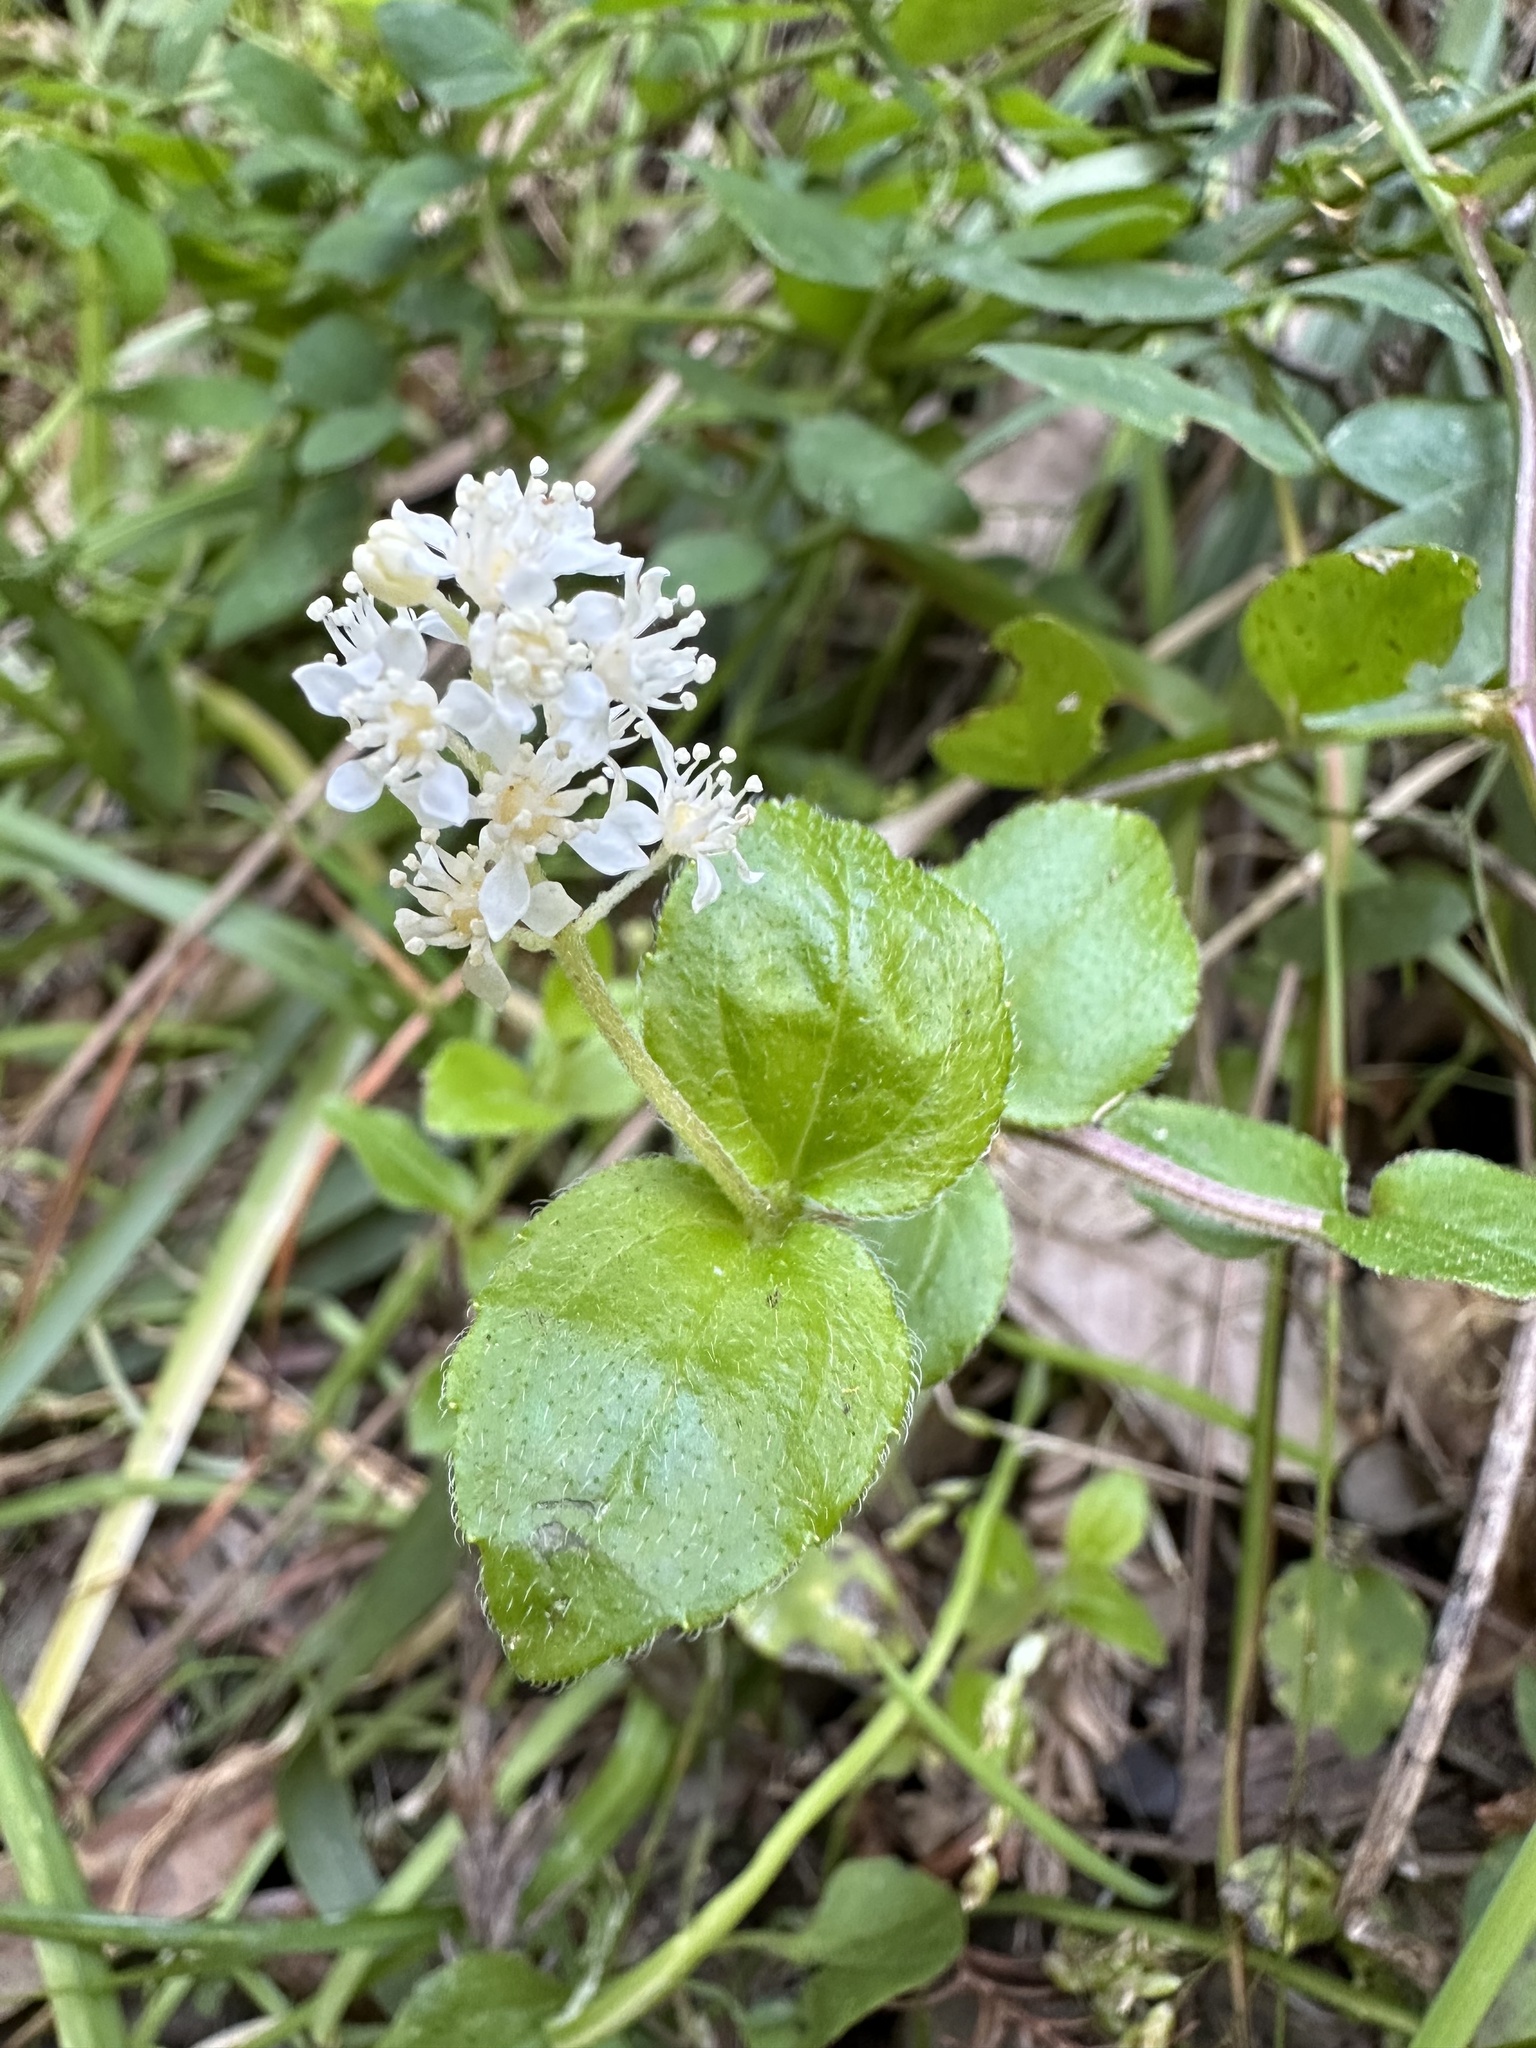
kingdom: Plantae
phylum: Tracheophyta
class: Magnoliopsida
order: Cornales
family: Hydrangeaceae
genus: Whipplea
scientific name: Whipplea modesta
